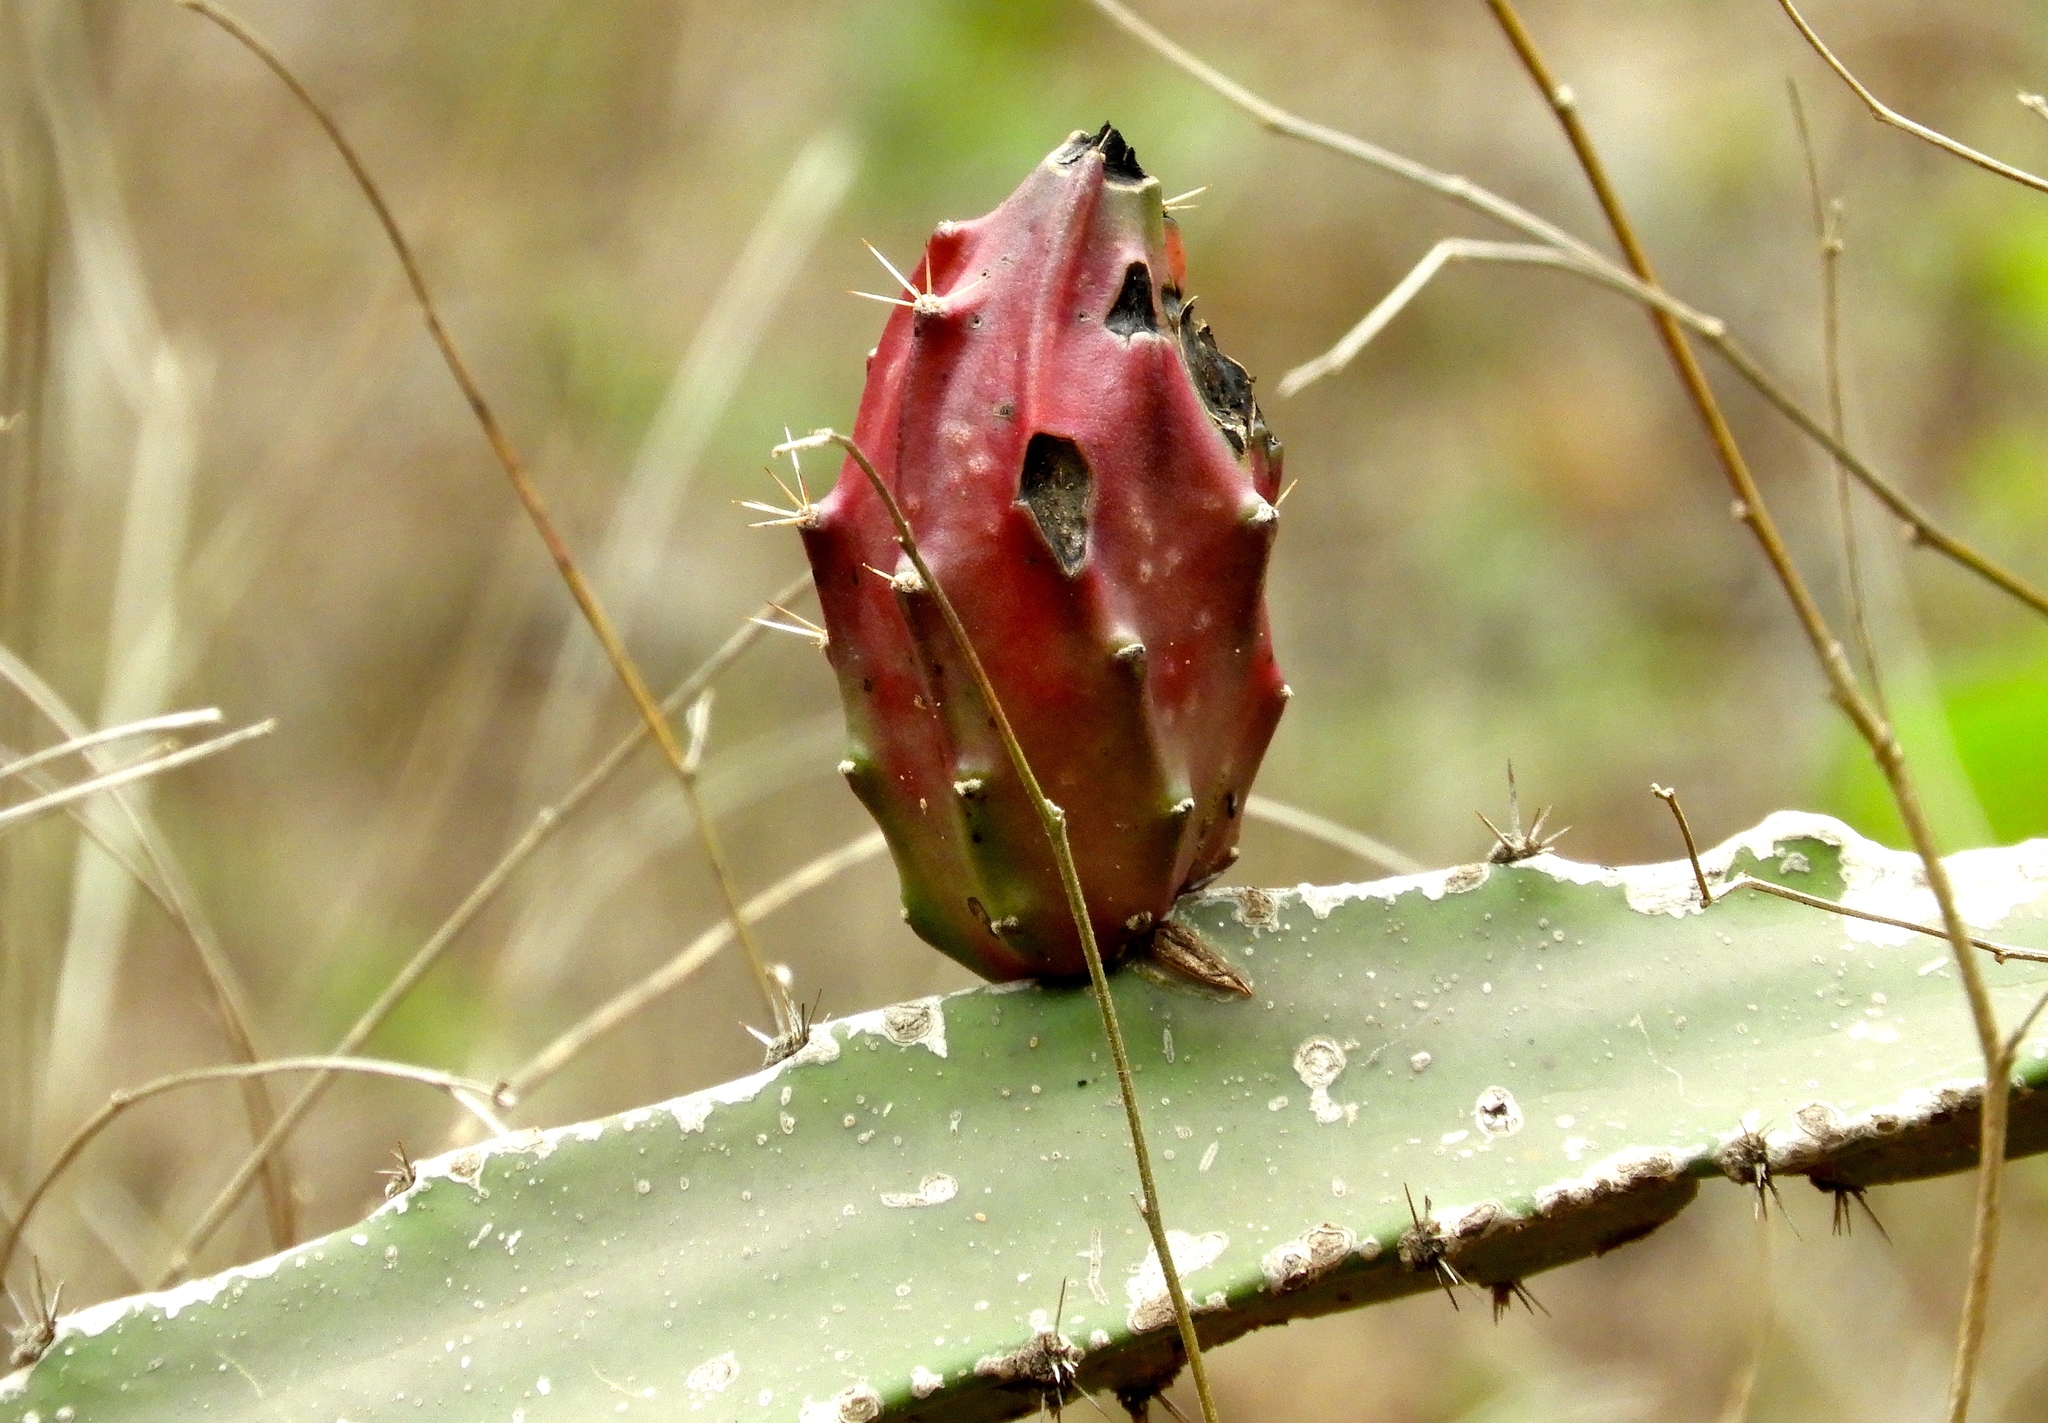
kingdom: Plantae
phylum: Tracheophyta
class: Magnoliopsida
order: Caryophyllales
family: Cactaceae
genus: Acanthocereus
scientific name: Acanthocereus tetragonus
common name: Triangle cactus
